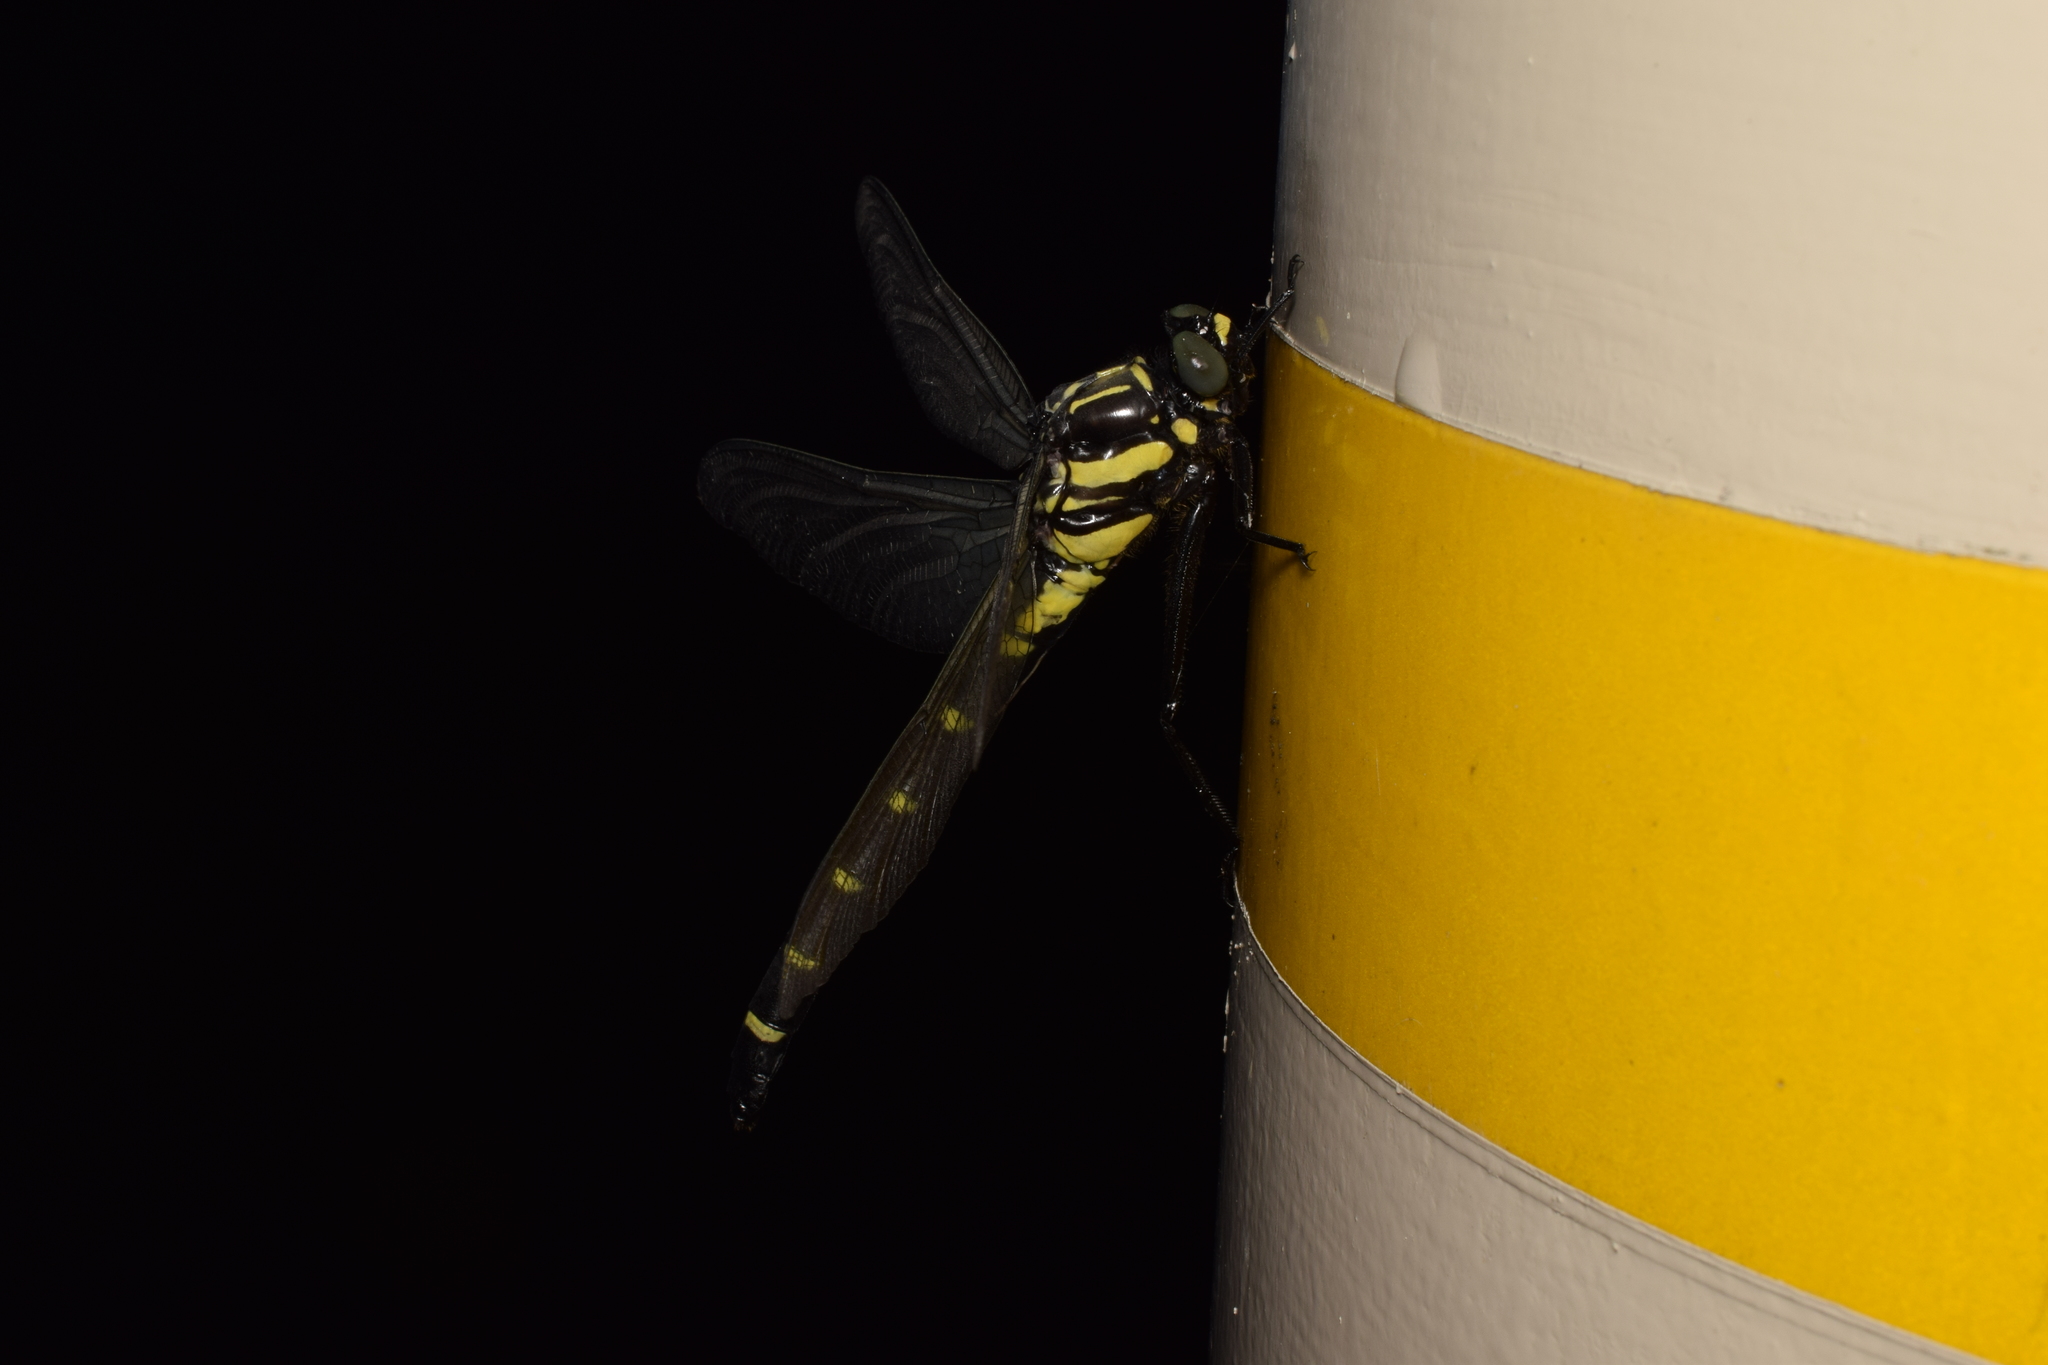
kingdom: Animalia
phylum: Arthropoda
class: Insecta
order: Odonata
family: Gomphidae
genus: Sieboldius
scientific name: Sieboldius albardae
